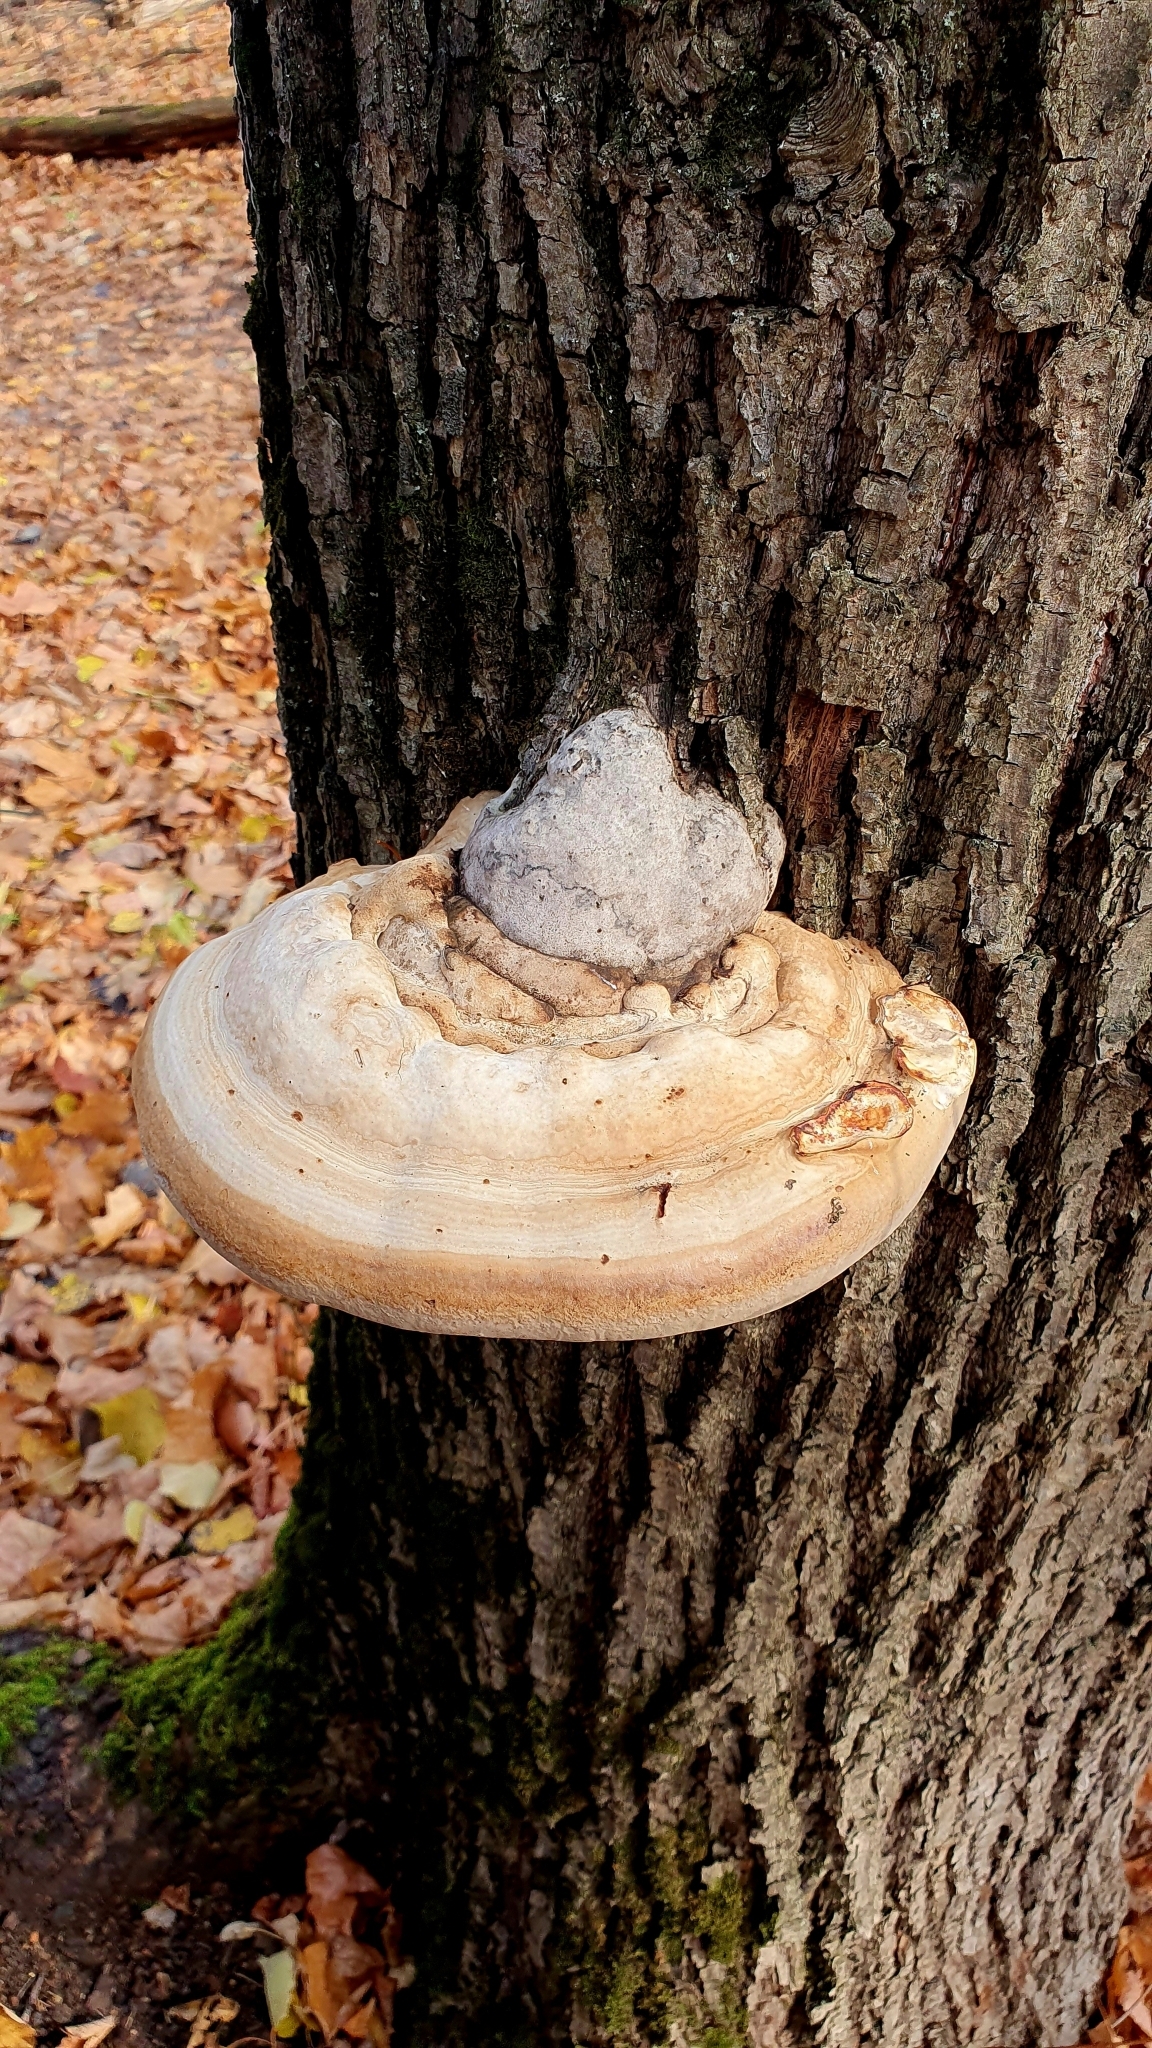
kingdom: Fungi
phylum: Basidiomycota
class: Agaricomycetes
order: Polyporales
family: Polyporaceae
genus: Fomes
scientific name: Fomes fomentarius
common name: Hoof fungus
